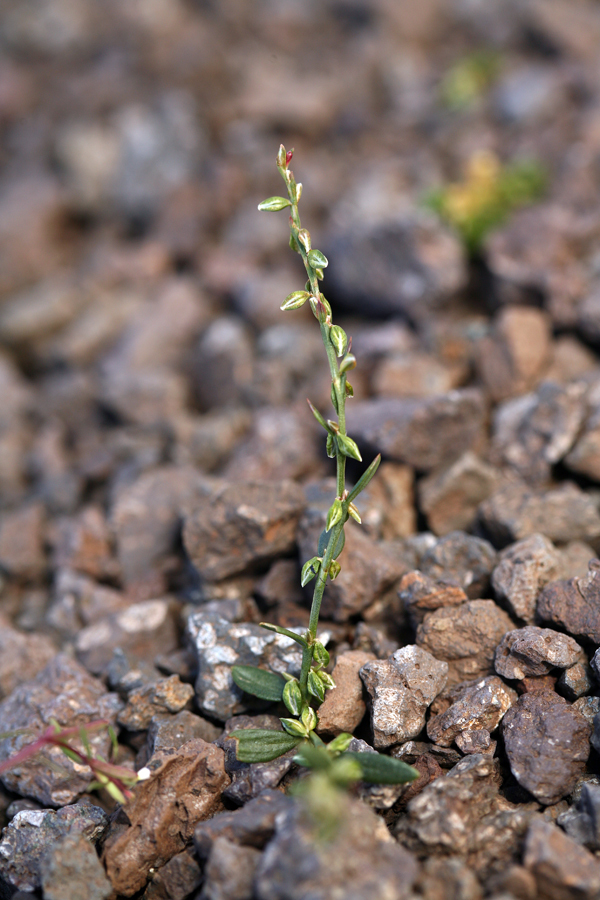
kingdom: Plantae
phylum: Tracheophyta
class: Magnoliopsida
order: Caryophyllales
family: Polygonaceae
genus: Polygonum
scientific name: Polygonum douglasii
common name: Douglas' knotweed
